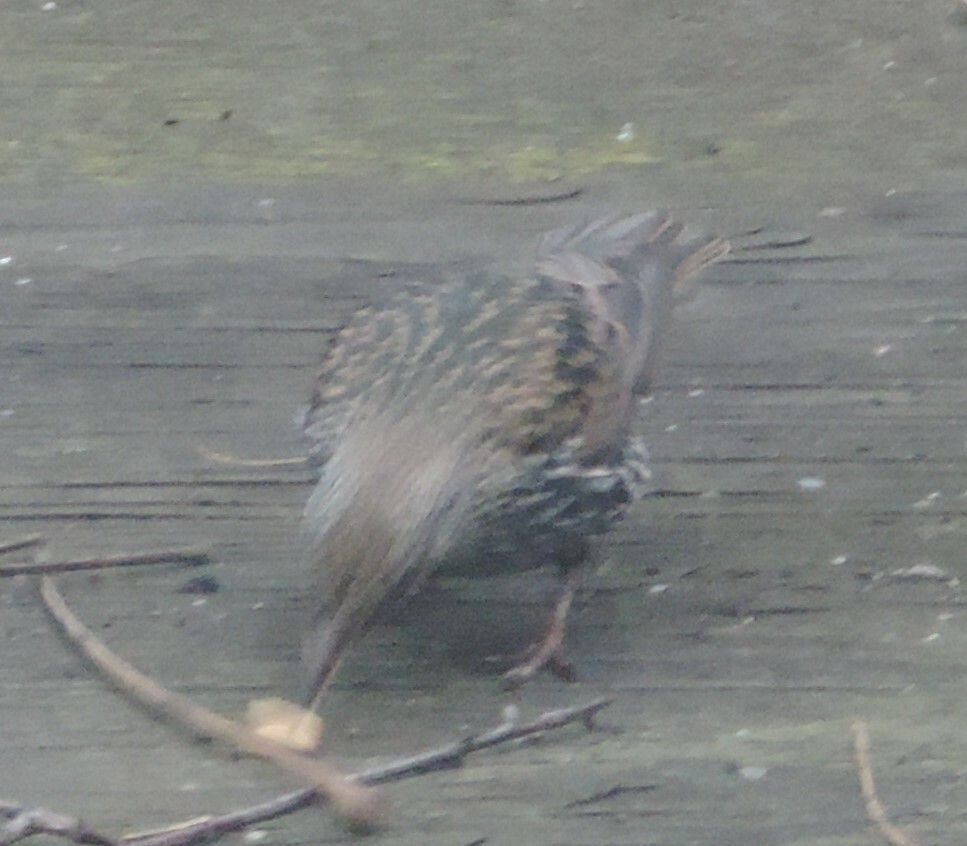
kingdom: Animalia
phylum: Chordata
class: Aves
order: Passeriformes
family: Sturnidae
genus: Sturnus
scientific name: Sturnus vulgaris
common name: Common starling
